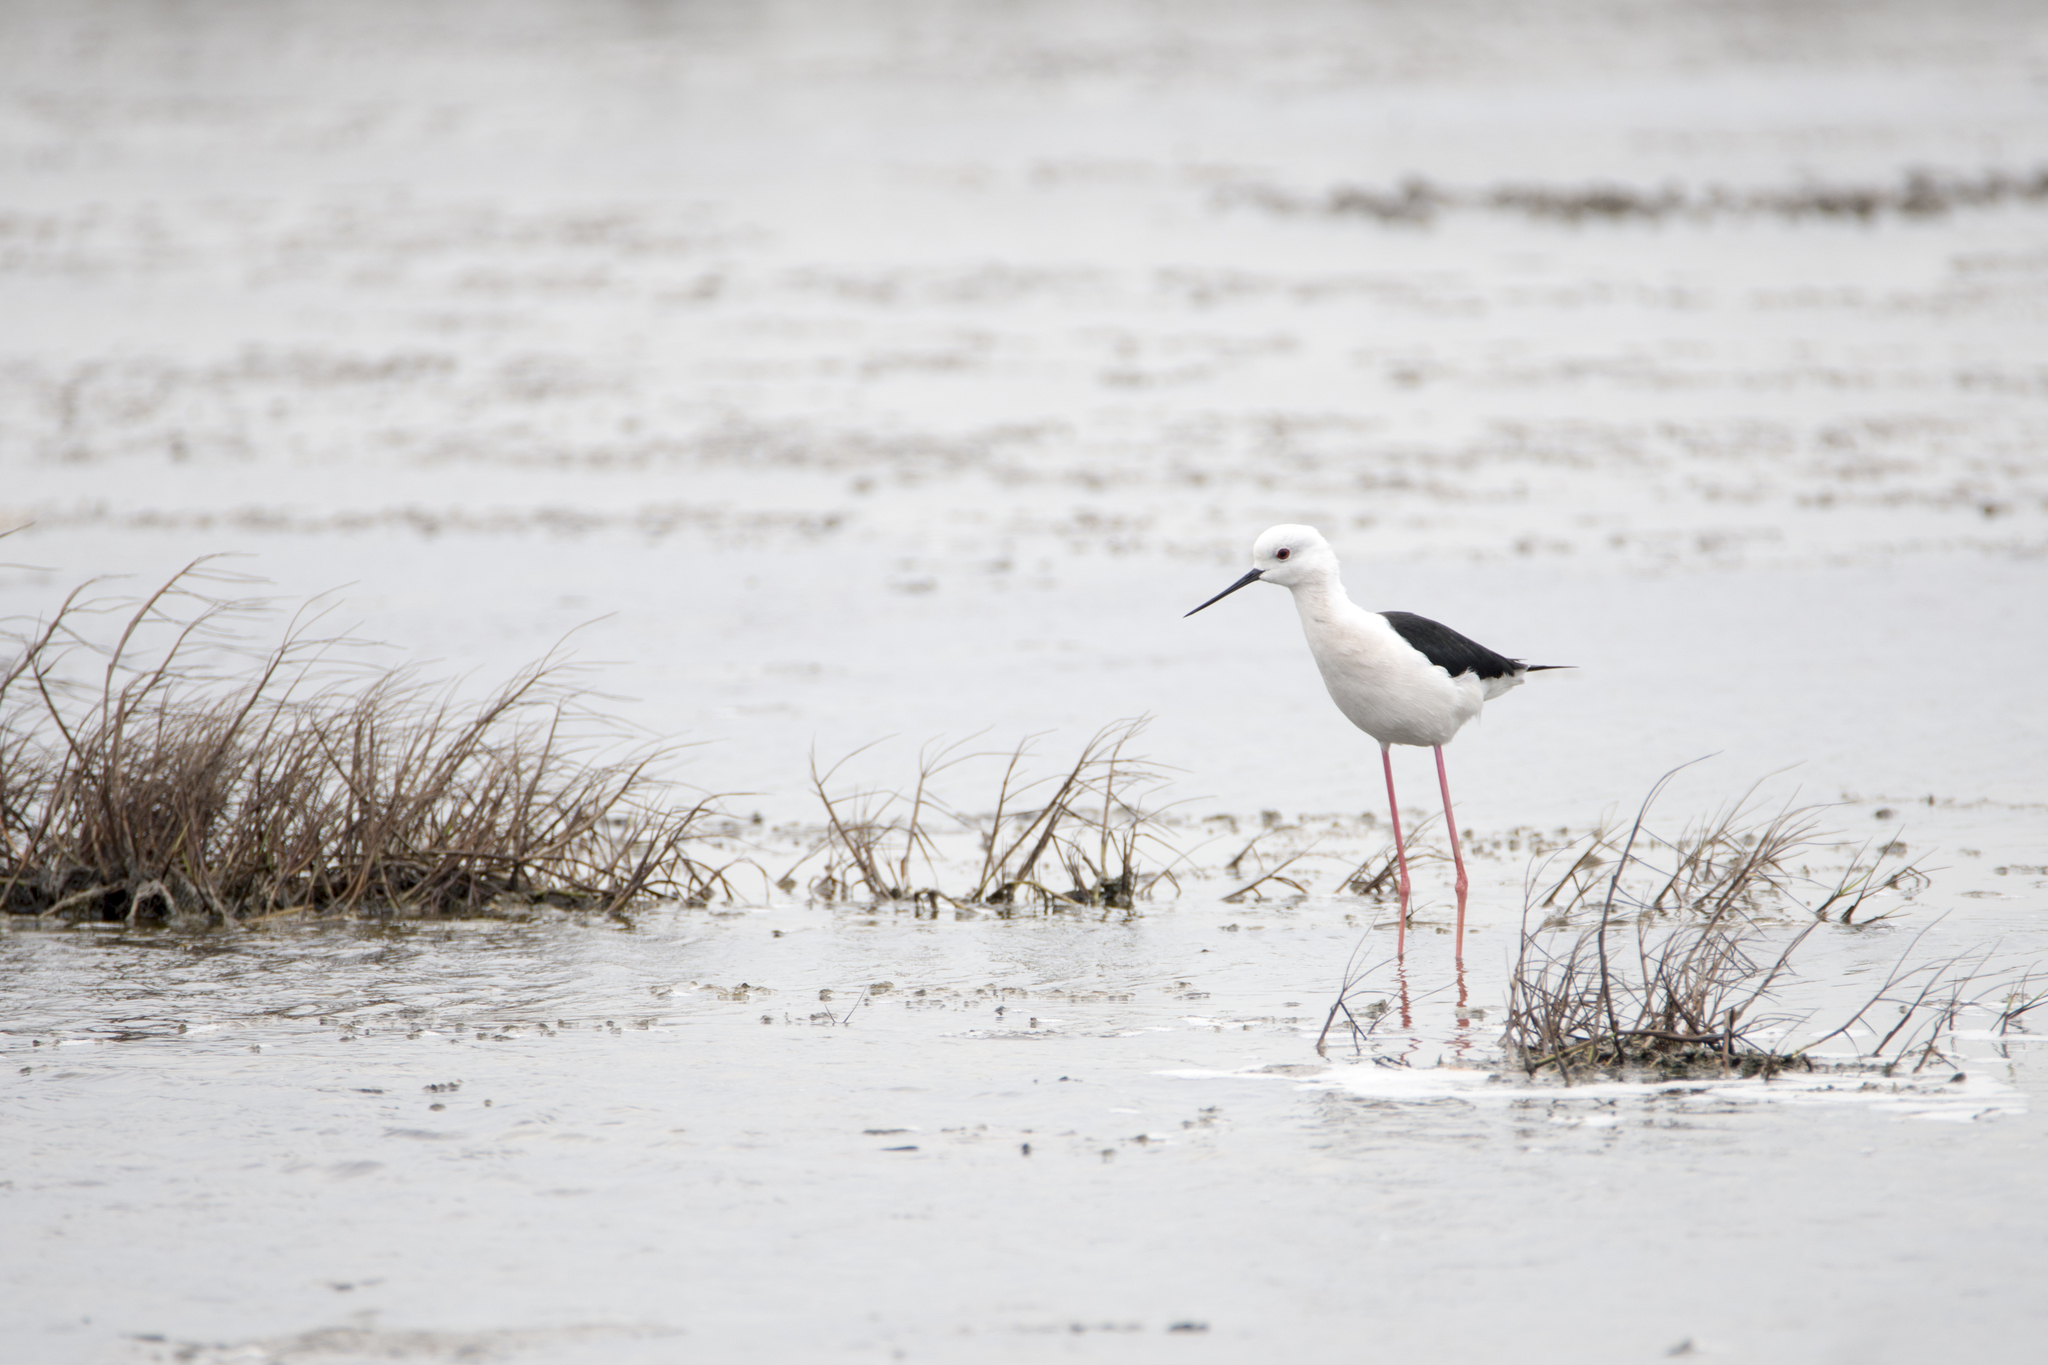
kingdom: Animalia
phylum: Chordata
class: Aves
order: Charadriiformes
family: Recurvirostridae
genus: Himantopus
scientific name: Himantopus himantopus
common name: Black-winged stilt
